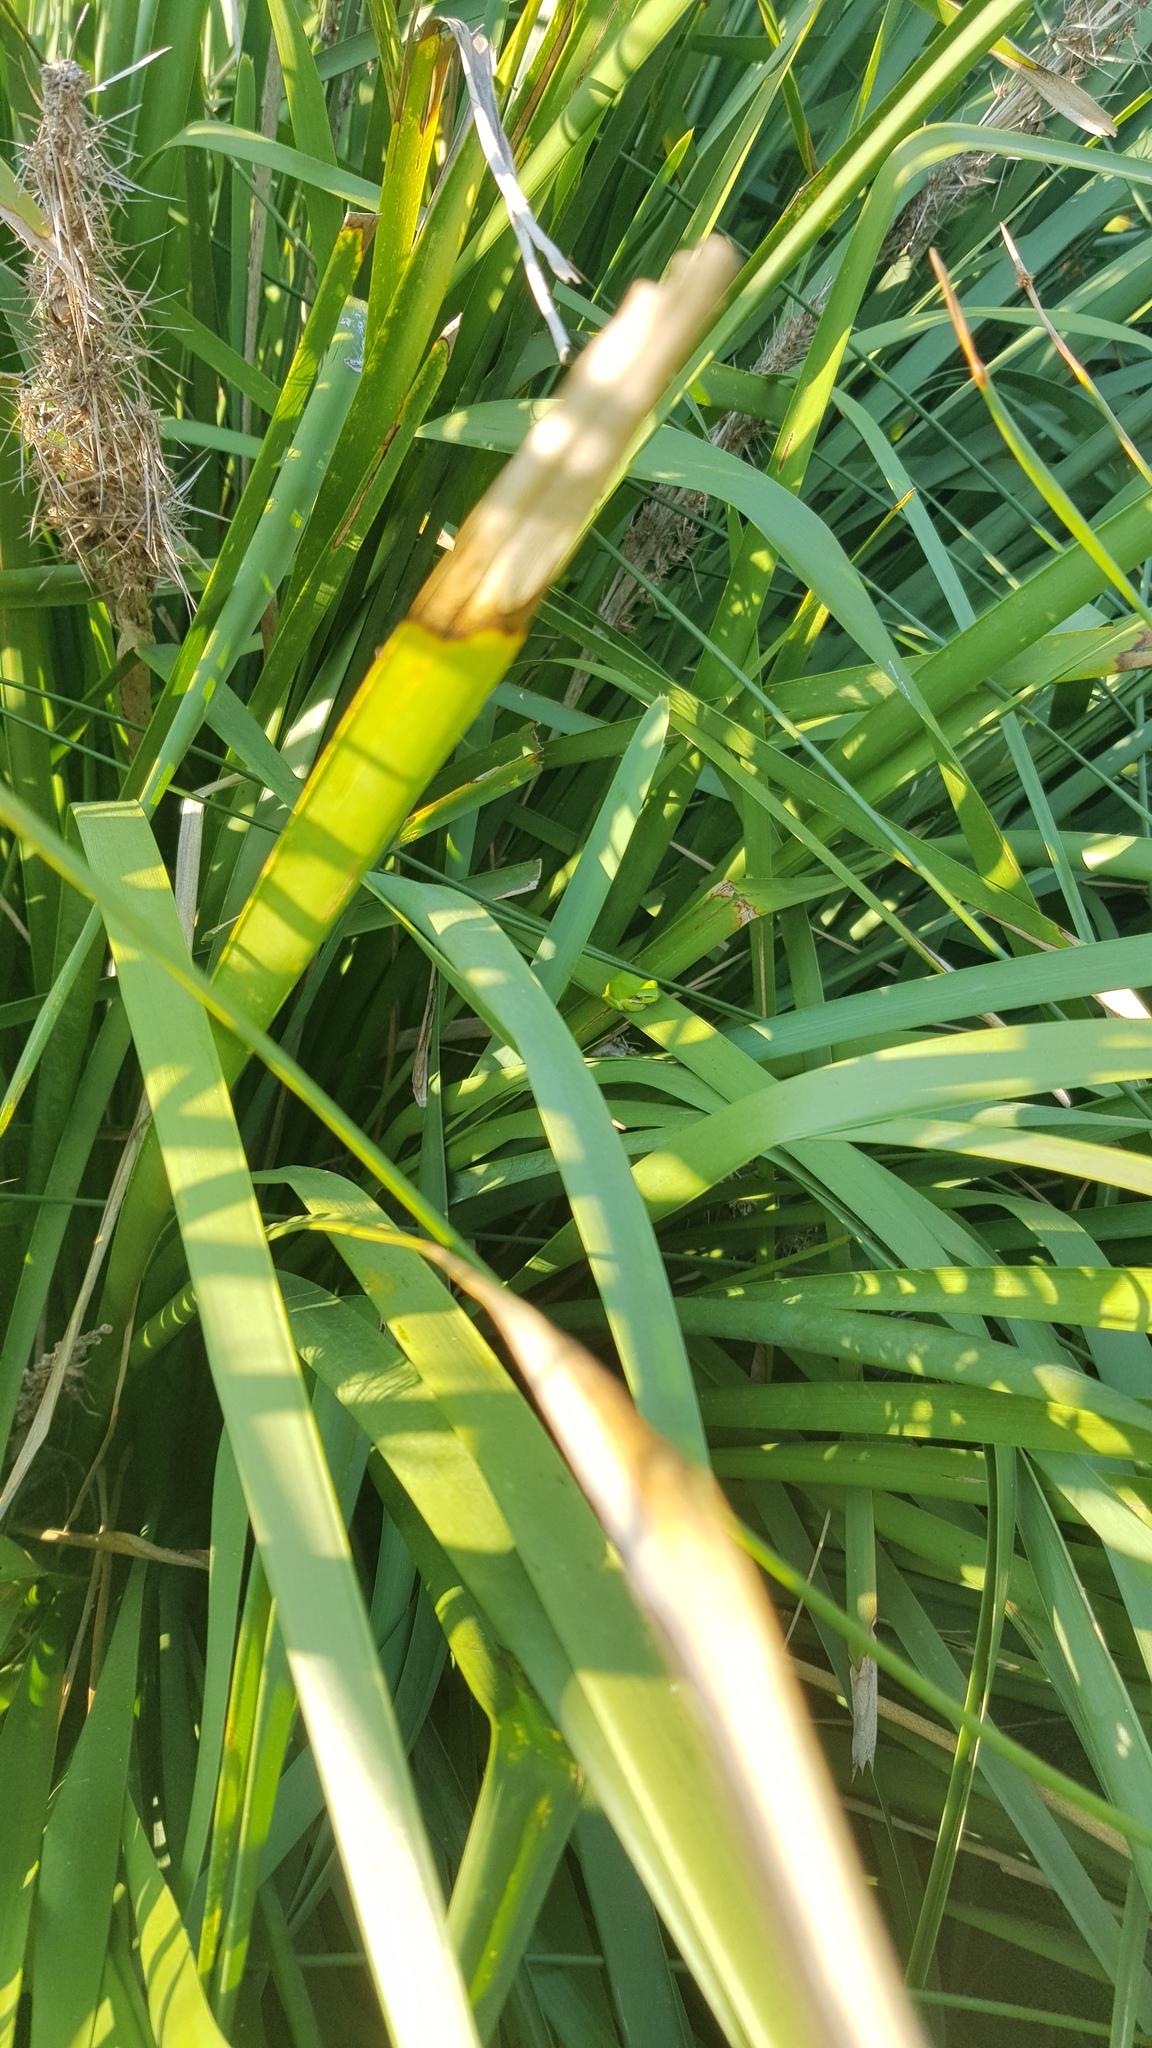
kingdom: Animalia
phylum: Chordata
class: Amphibia
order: Anura
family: Pelodryadidae
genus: Litoria
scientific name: Litoria fallax
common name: Eastern dwarf treefrog
